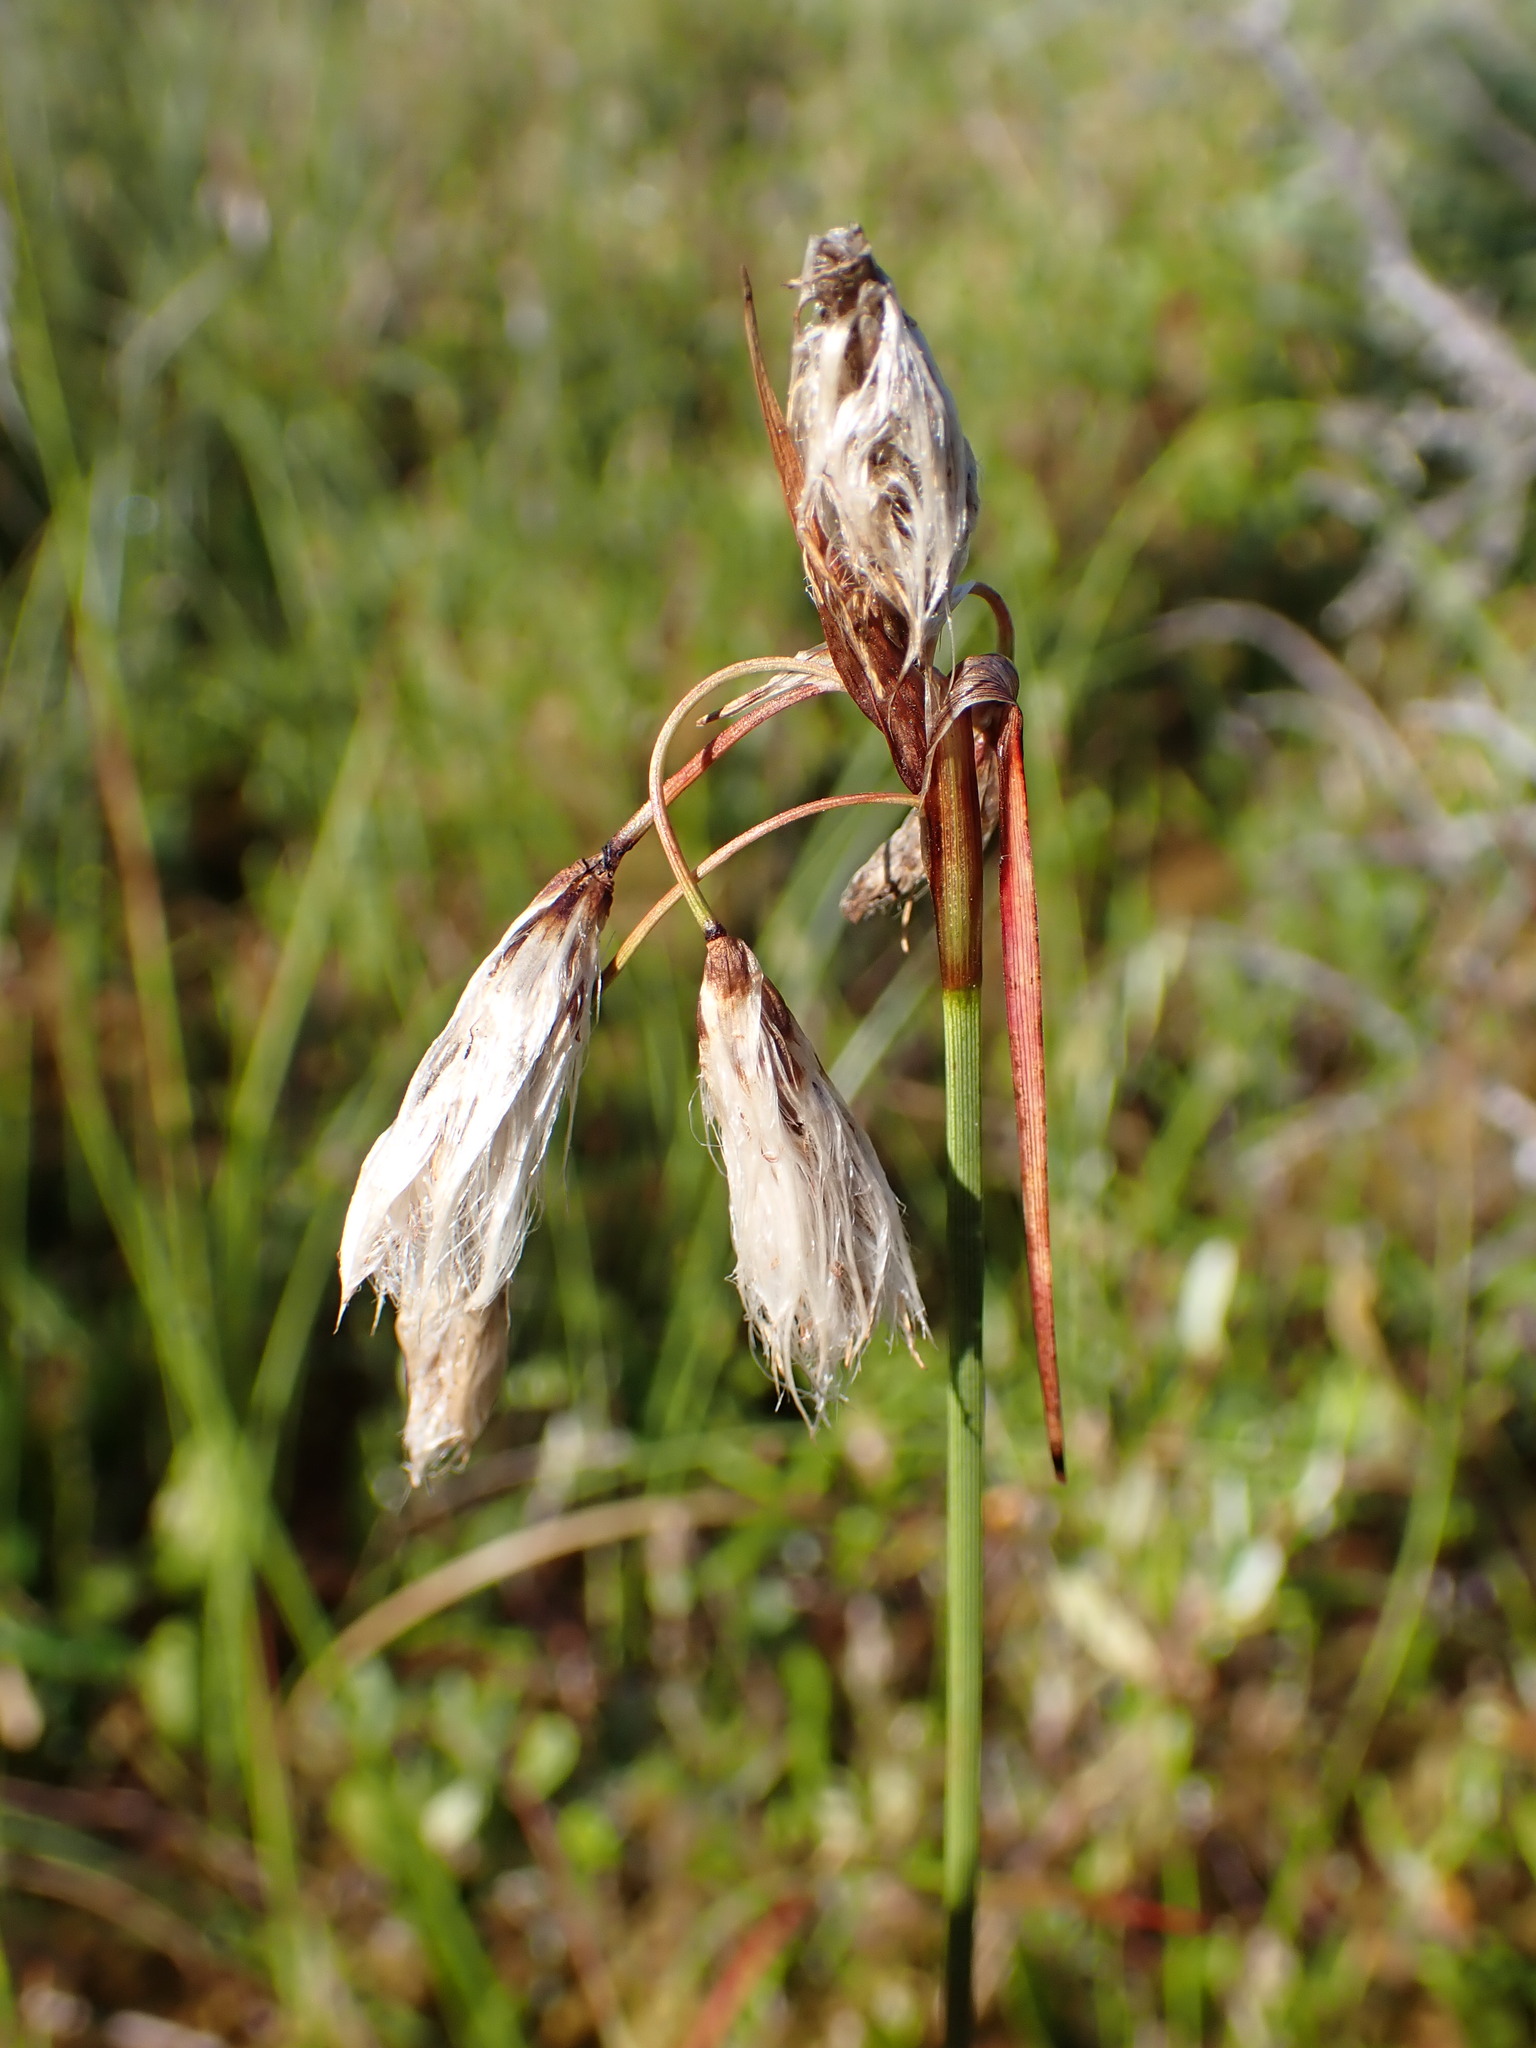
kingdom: Plantae
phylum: Tracheophyta
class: Liliopsida
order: Poales
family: Cyperaceae
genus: Eriophorum
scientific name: Eriophorum angustifolium
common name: Common cottongrass
